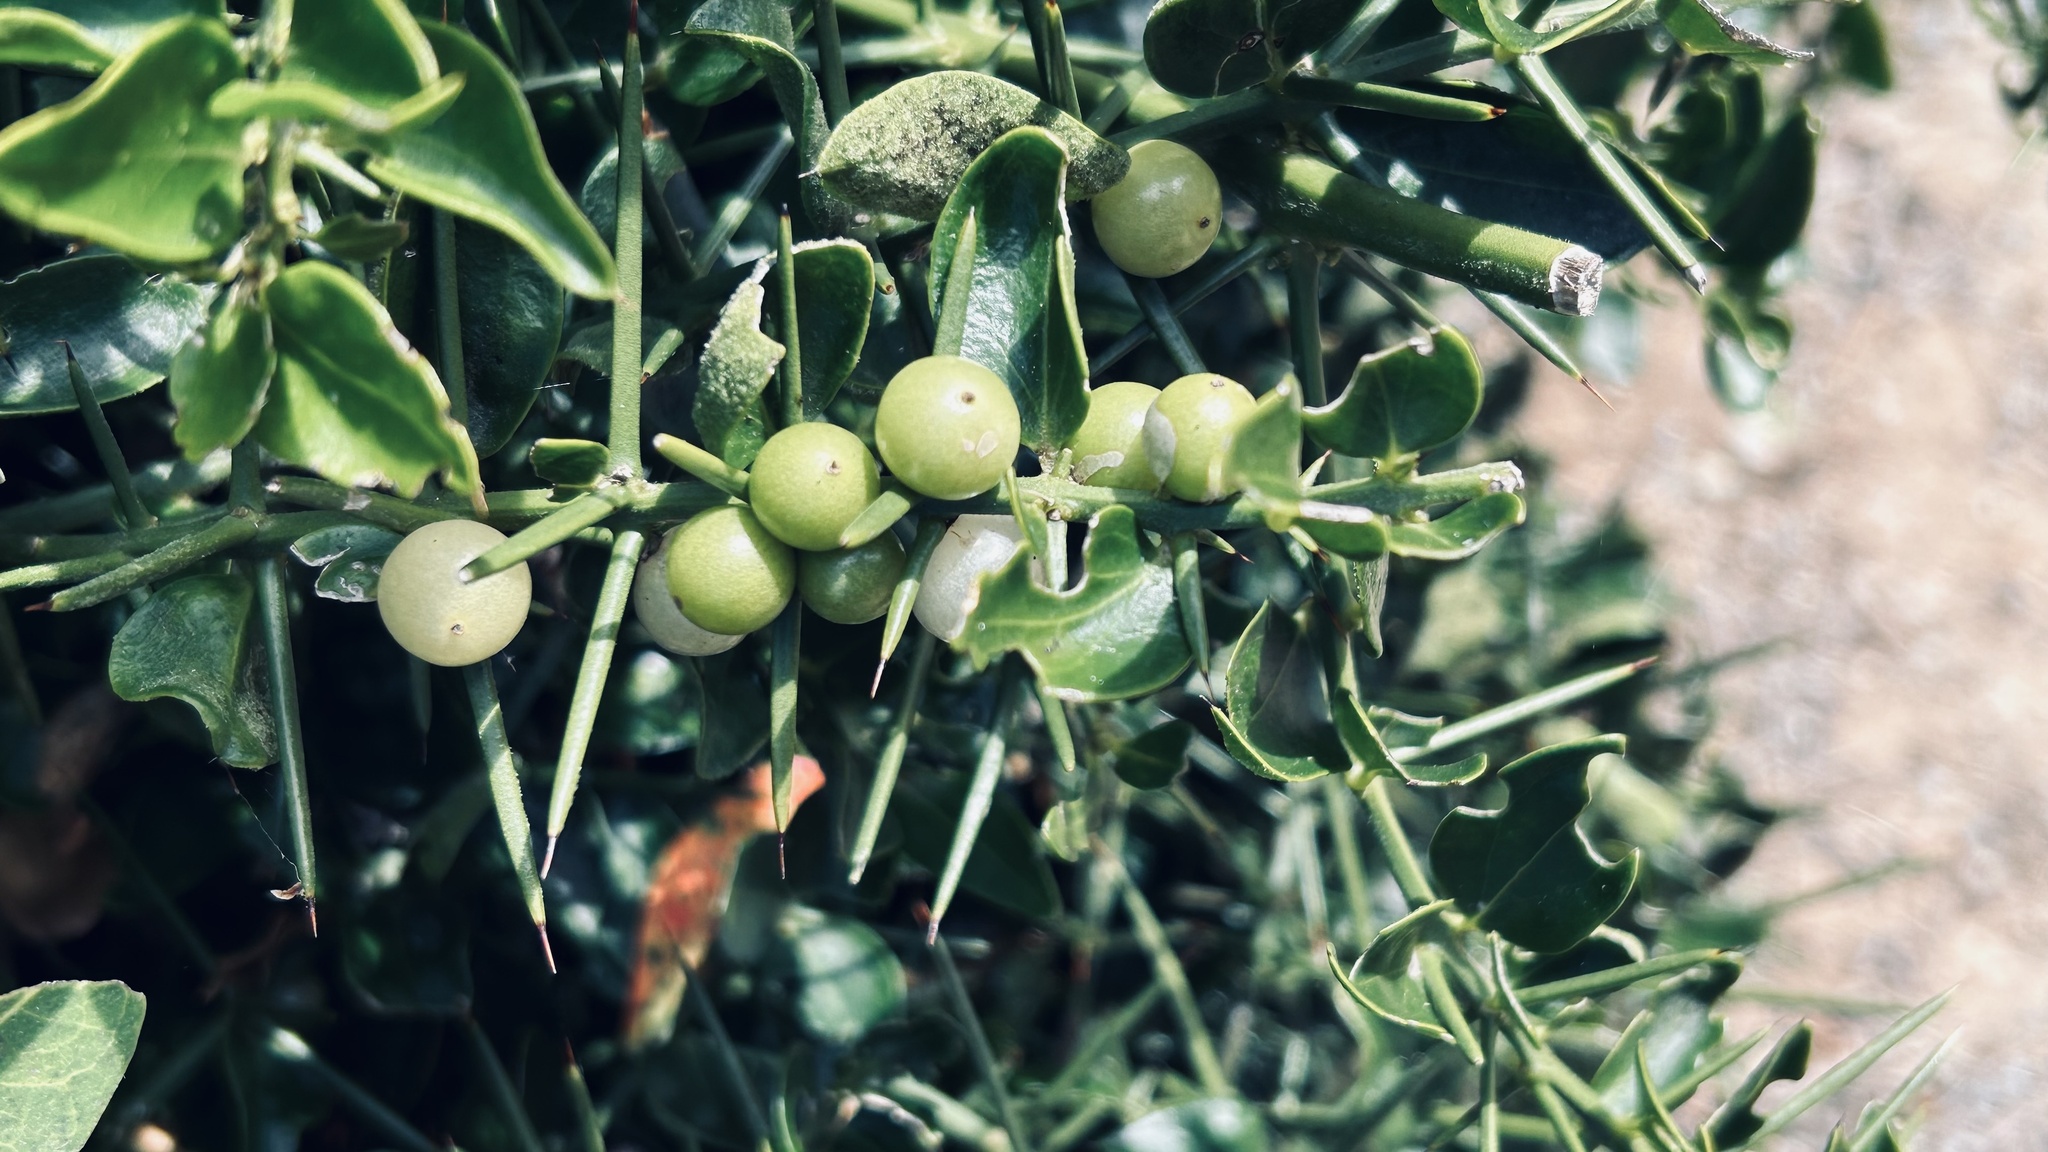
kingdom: Plantae
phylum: Tracheophyta
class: Magnoliopsida
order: Brassicales
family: Salvadoraceae
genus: Azima
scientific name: Azima tetracantha
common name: Needle bush
